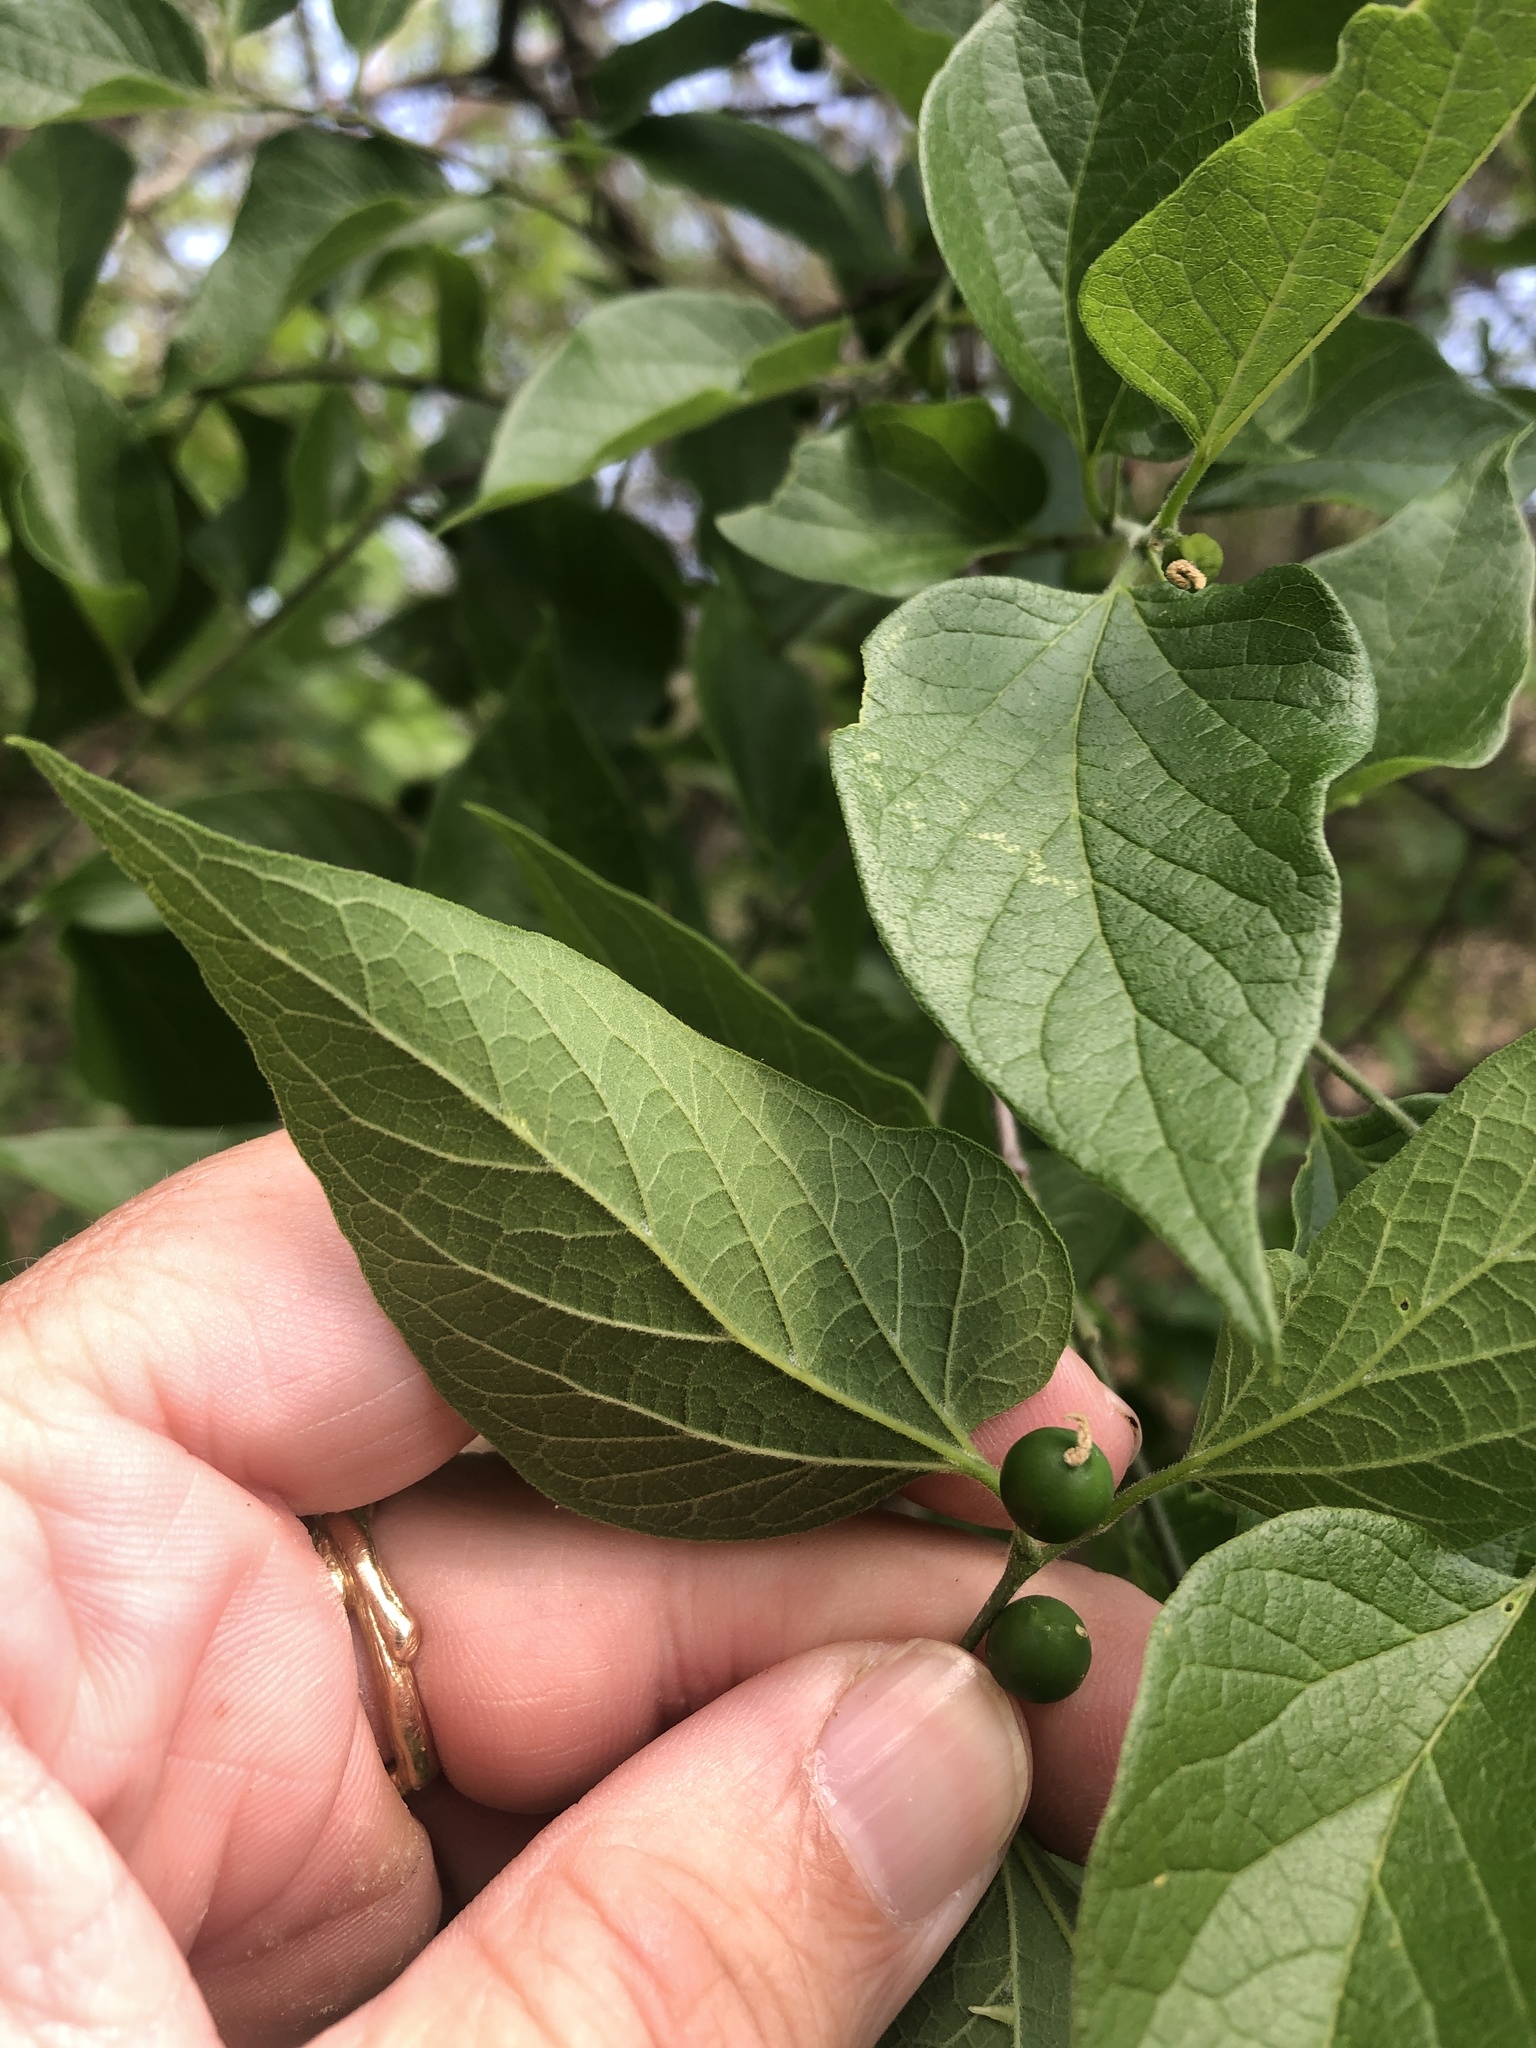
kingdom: Plantae
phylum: Tracheophyta
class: Magnoliopsida
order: Rosales
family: Cannabaceae
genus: Celtis
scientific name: Celtis reticulata
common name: Netleaf hackberry
